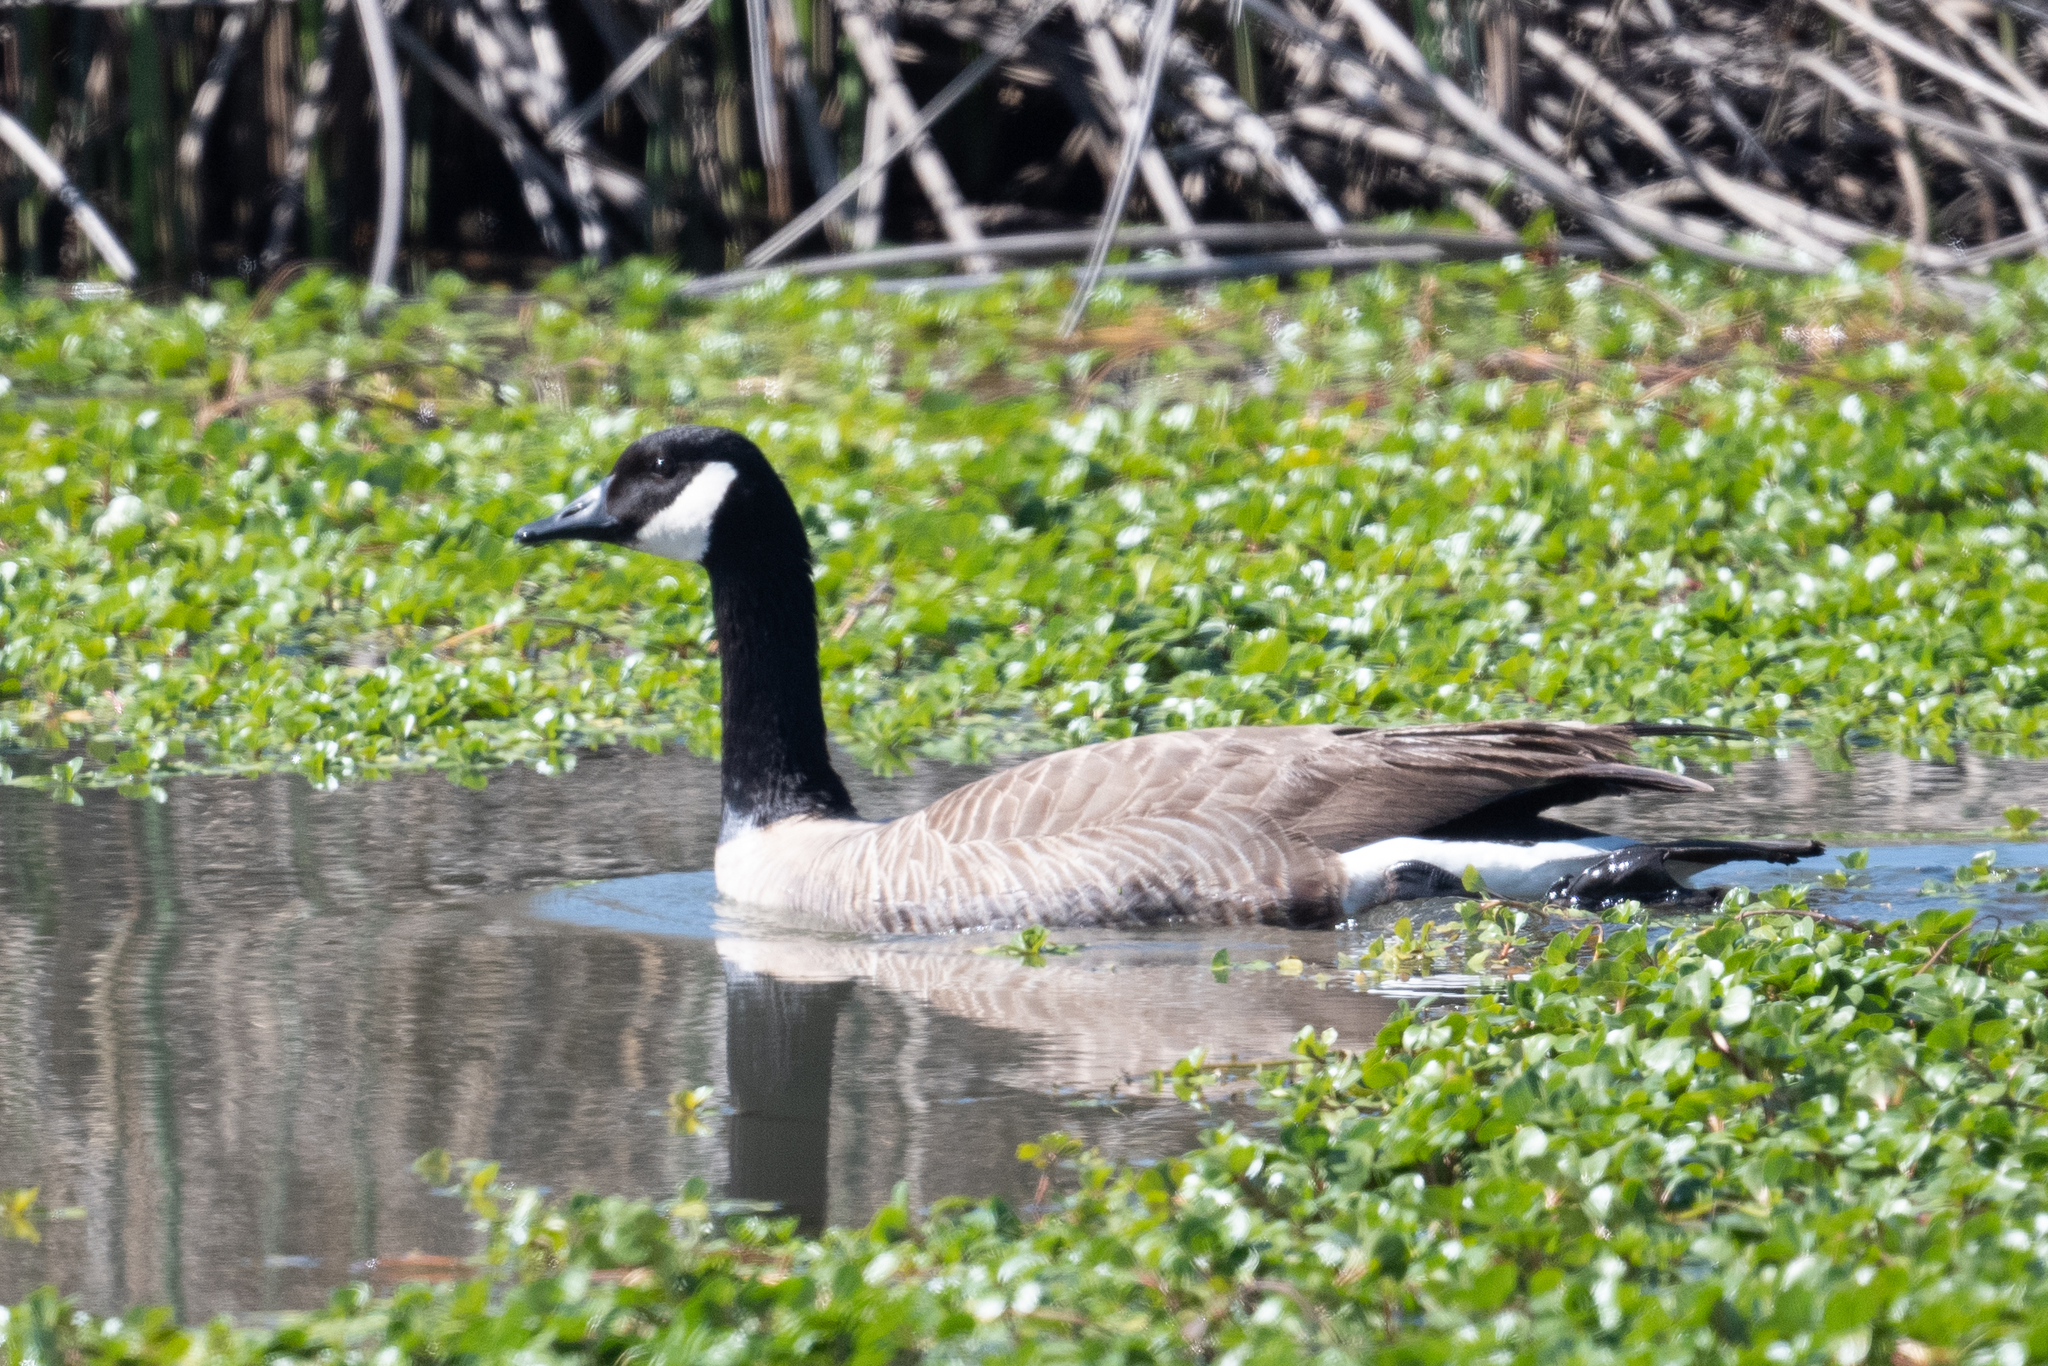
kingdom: Animalia
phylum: Chordata
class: Aves
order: Anseriformes
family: Anatidae
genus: Branta
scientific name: Branta canadensis
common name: Canada goose
